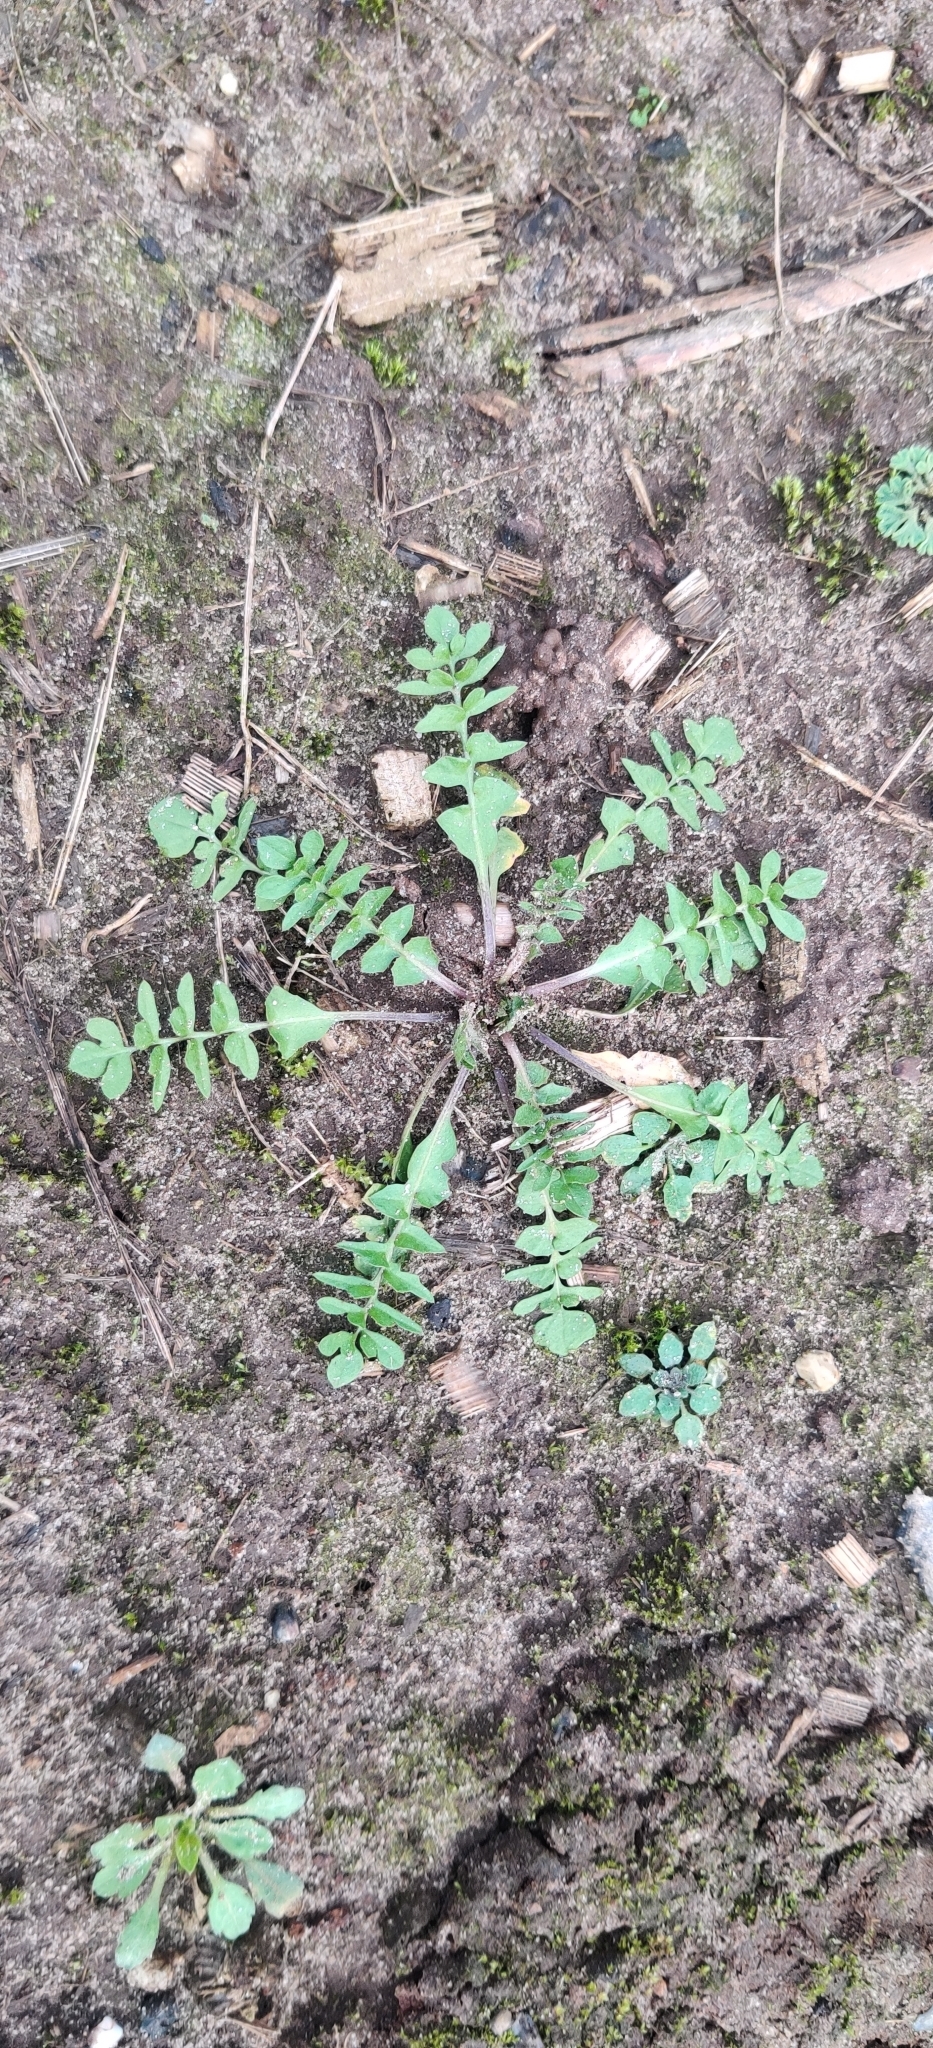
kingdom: Plantae
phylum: Tracheophyta
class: Magnoliopsida
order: Brassicales
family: Brassicaceae
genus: Capsella
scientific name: Capsella bursa-pastoris
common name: Shepherd's purse
